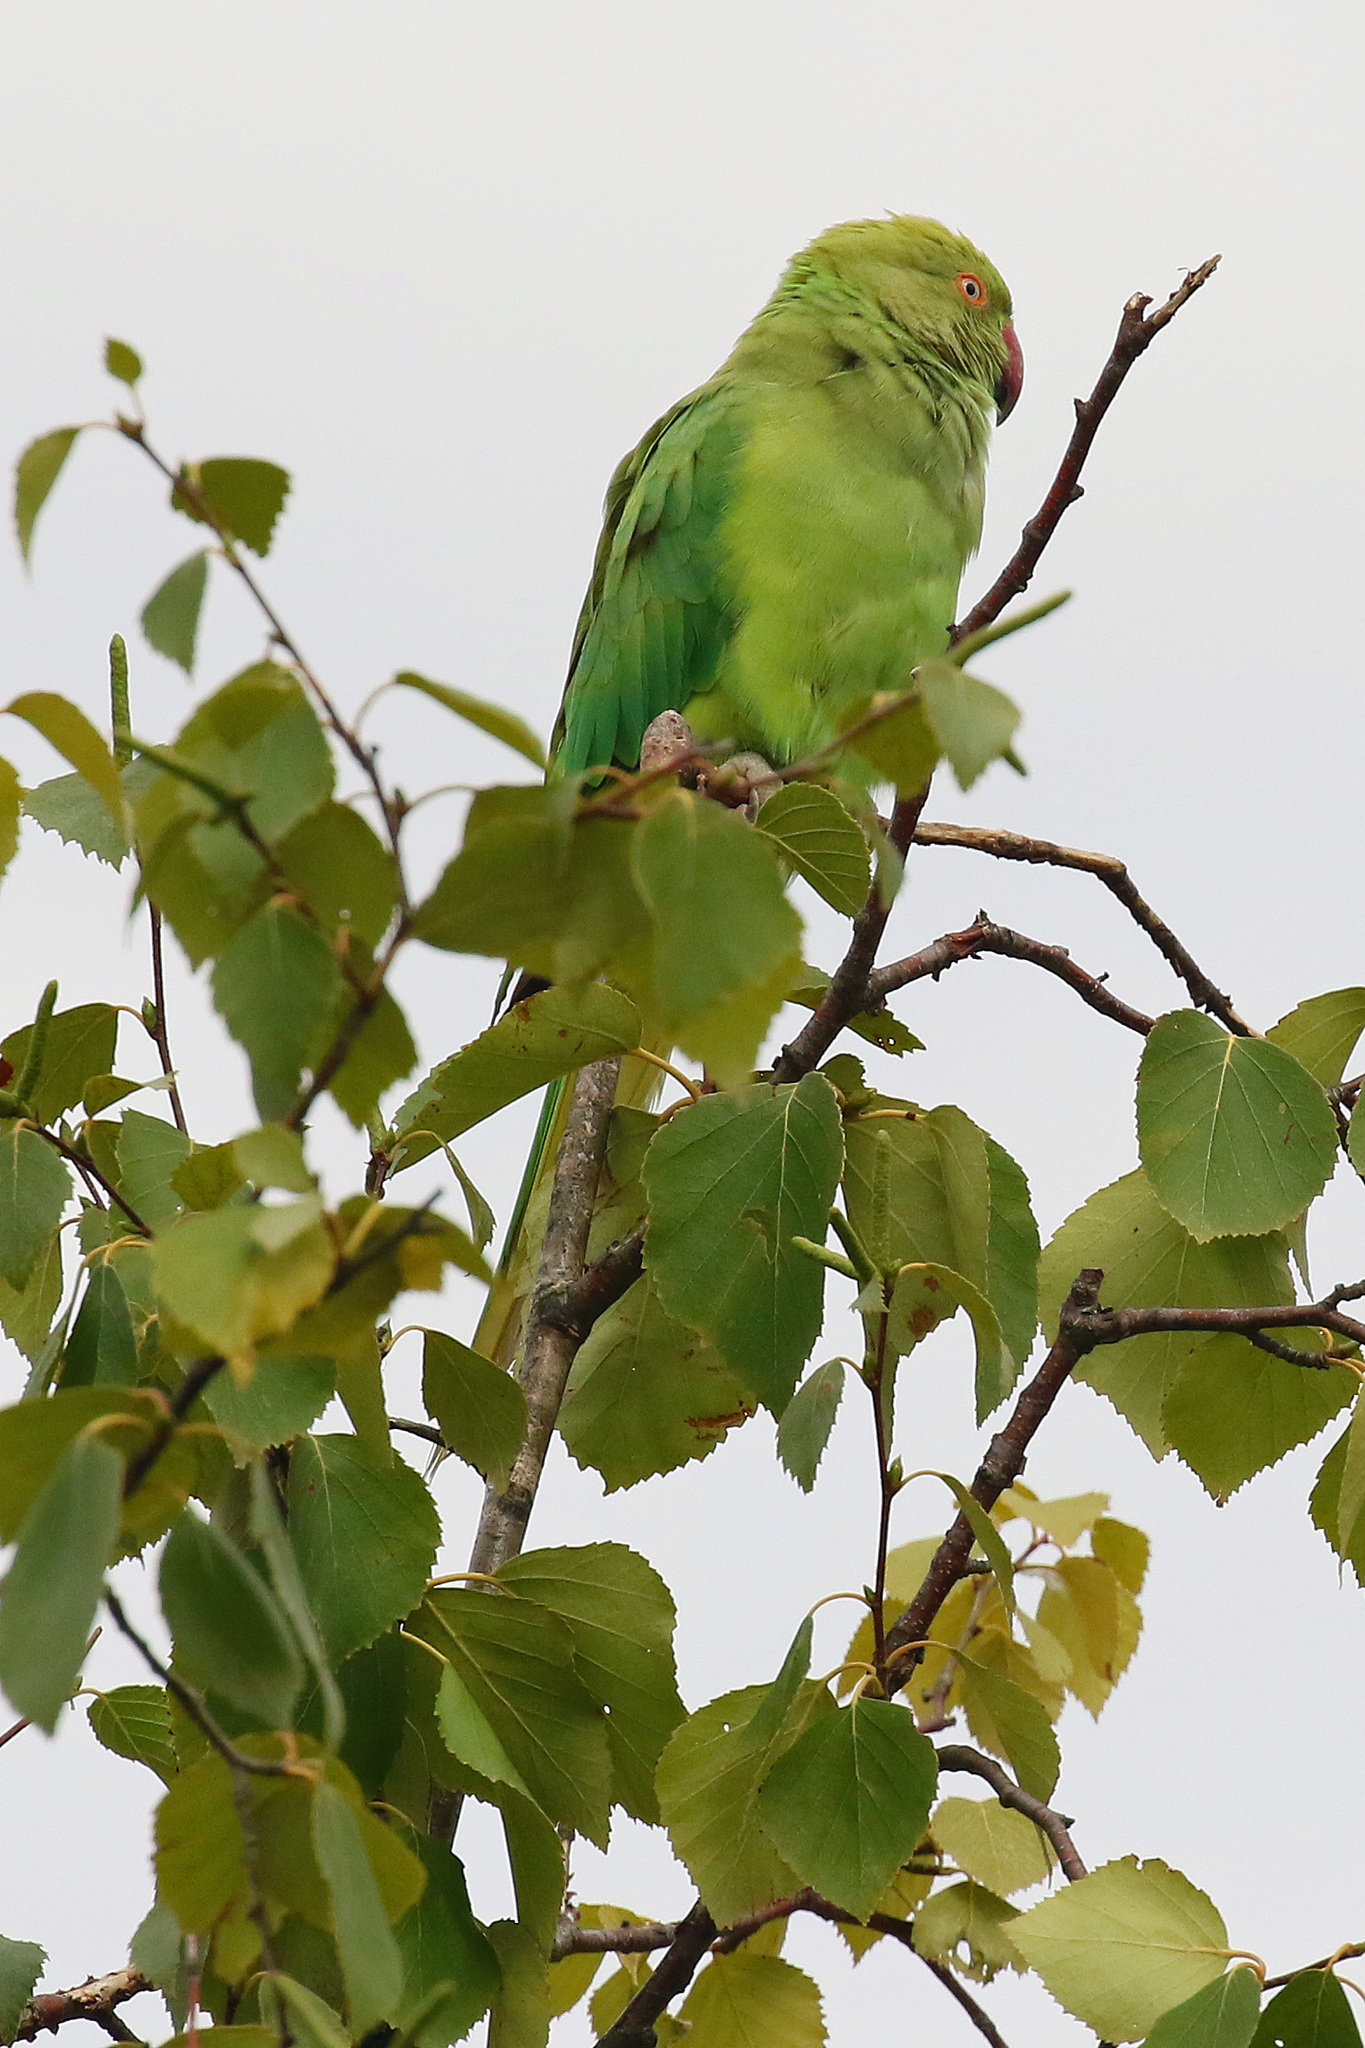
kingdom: Animalia
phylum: Chordata
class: Aves
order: Psittaciformes
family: Psittacidae
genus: Psittacula
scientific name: Psittacula krameri
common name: Rose-ringed parakeet
